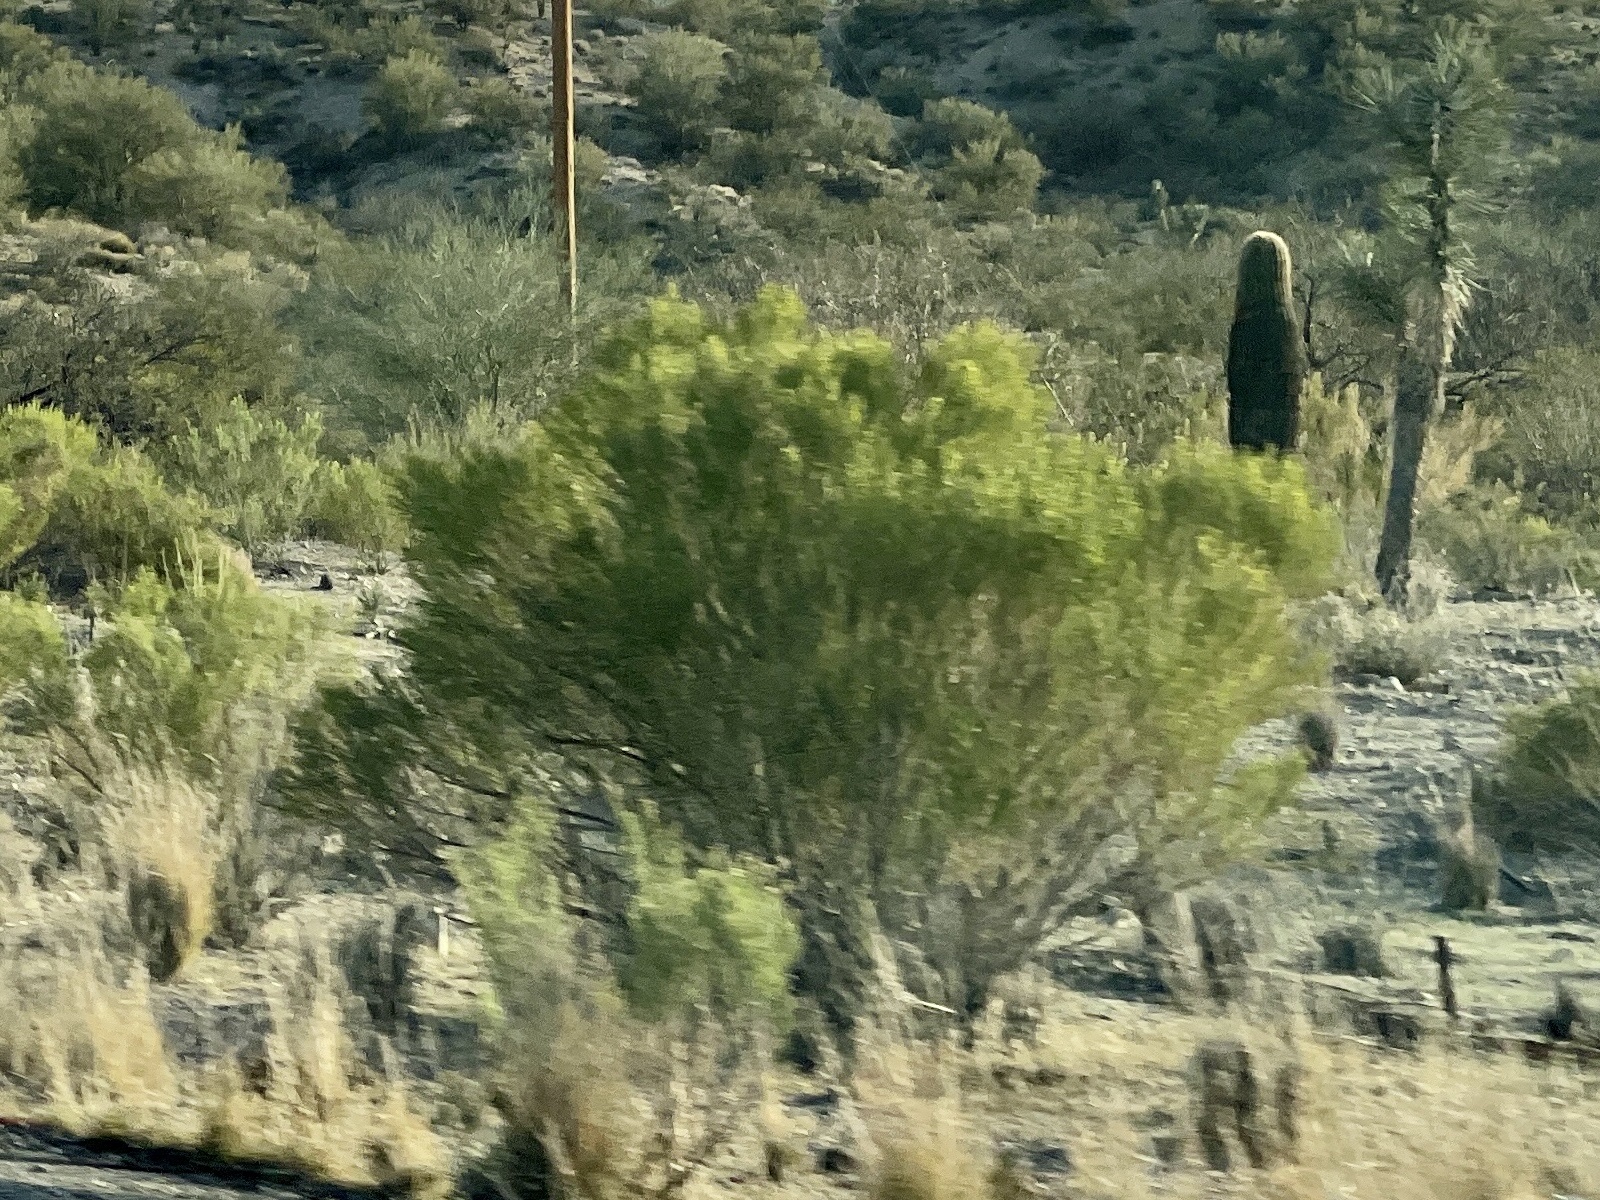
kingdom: Plantae
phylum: Tracheophyta
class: Magnoliopsida
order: Asterales
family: Asteraceae
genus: Baccharis
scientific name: Baccharis sarothroides
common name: Desert-broom
